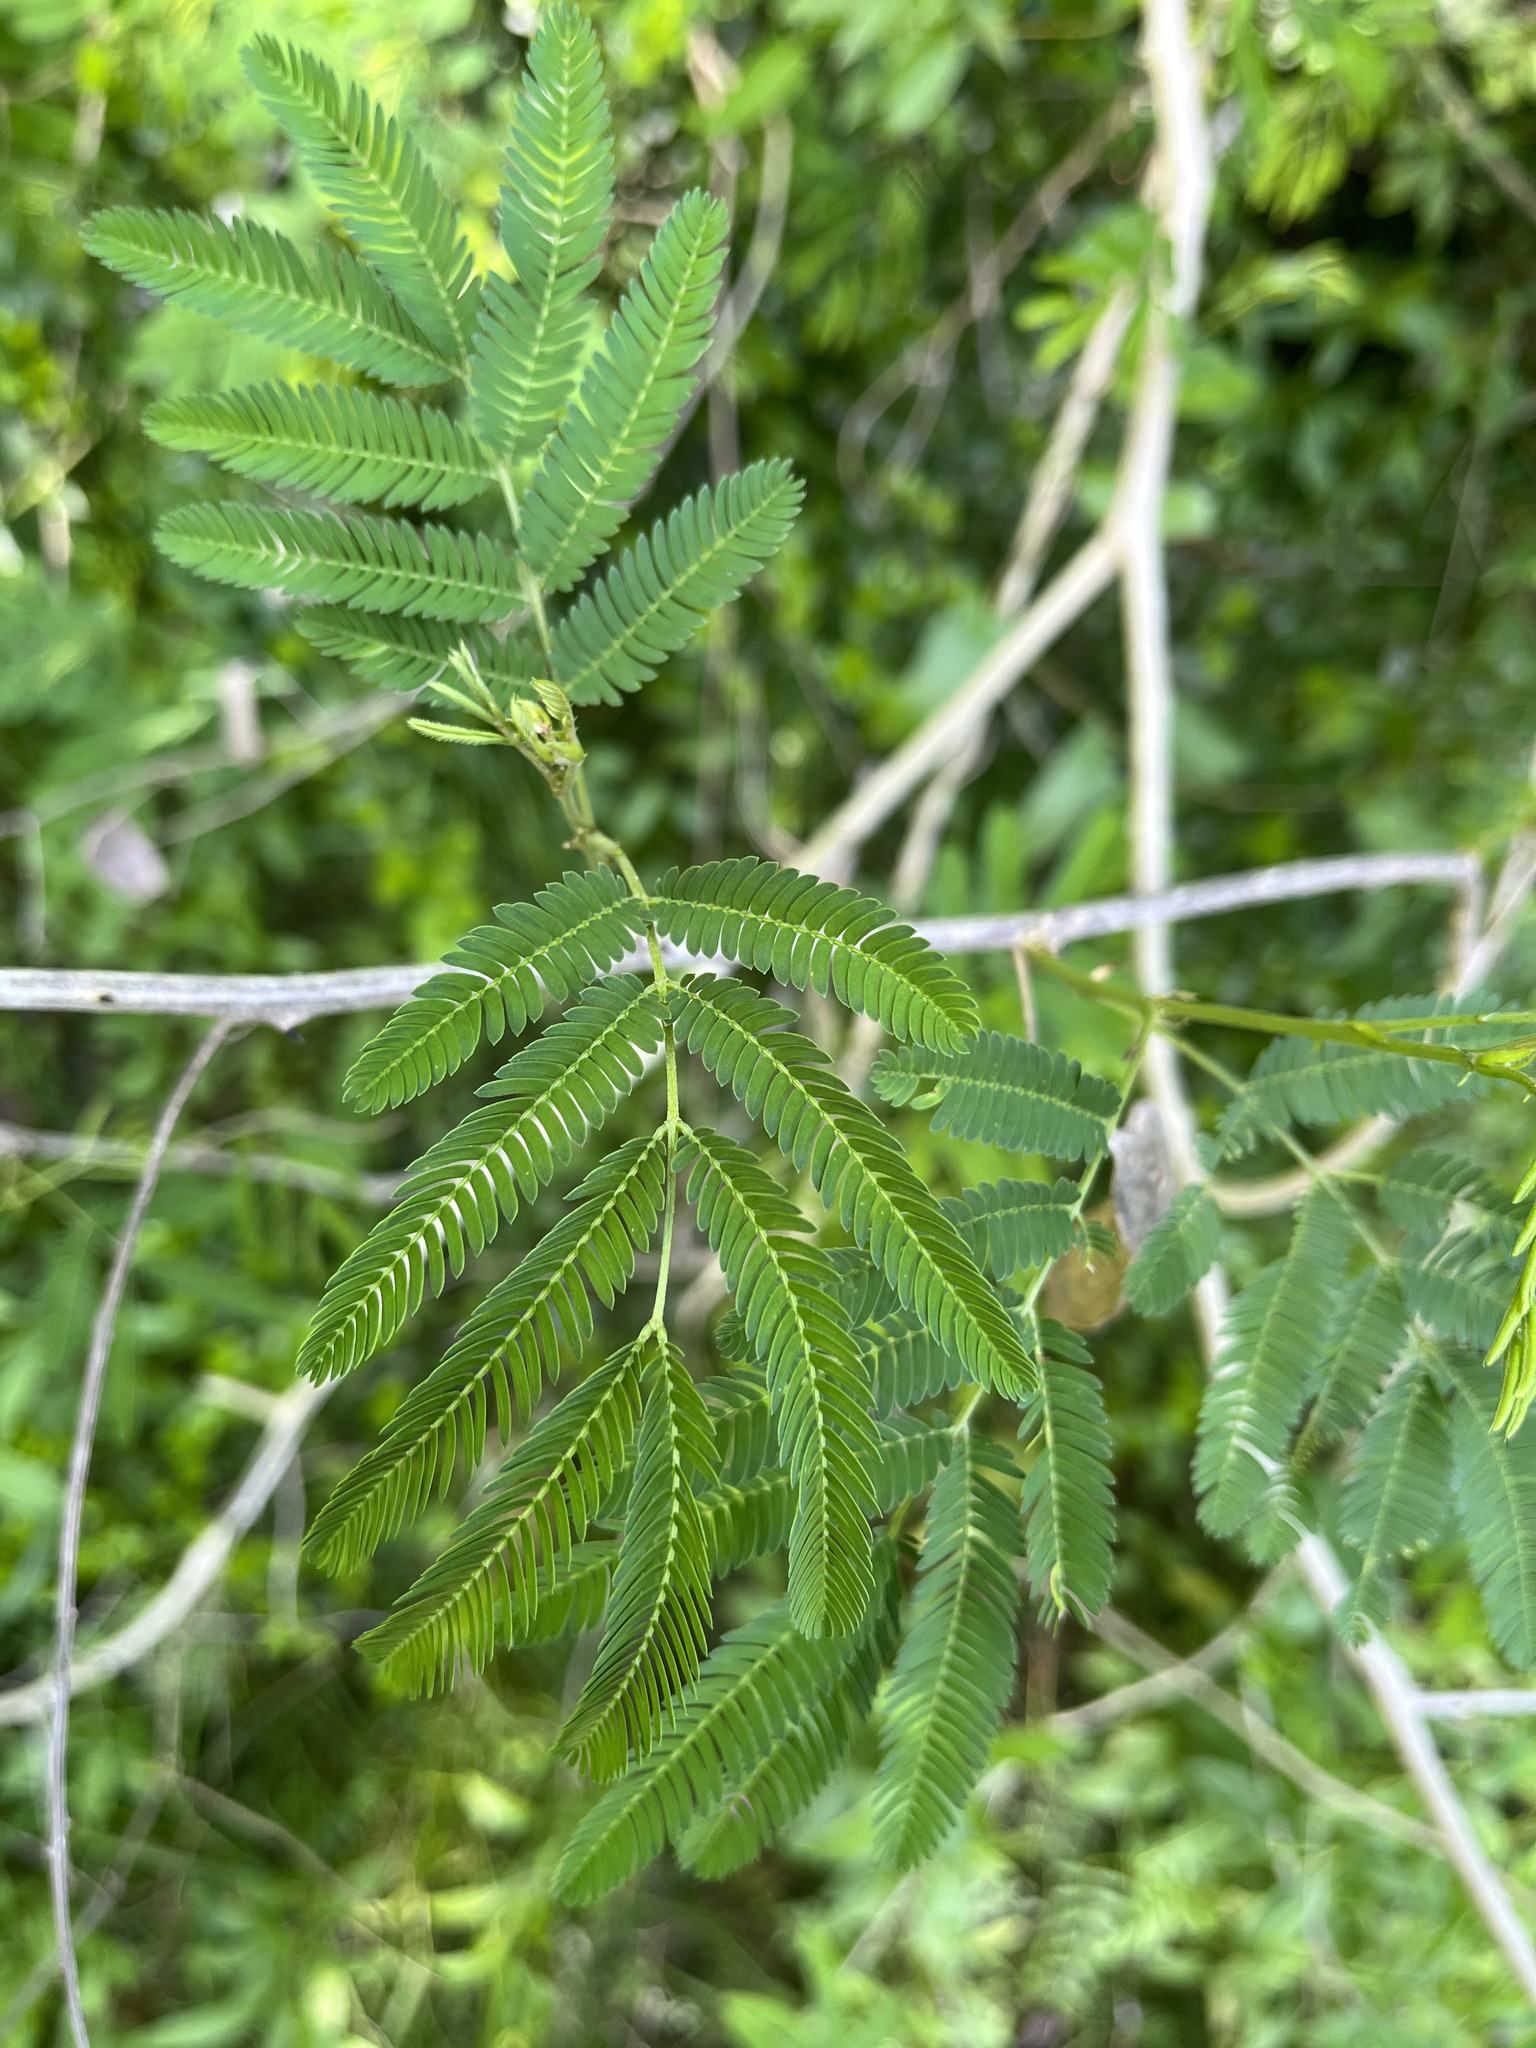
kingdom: Plantae
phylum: Tracheophyta
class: Magnoliopsida
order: Fabales
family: Fabaceae
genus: Senegalia
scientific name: Senegalia bonariensis
